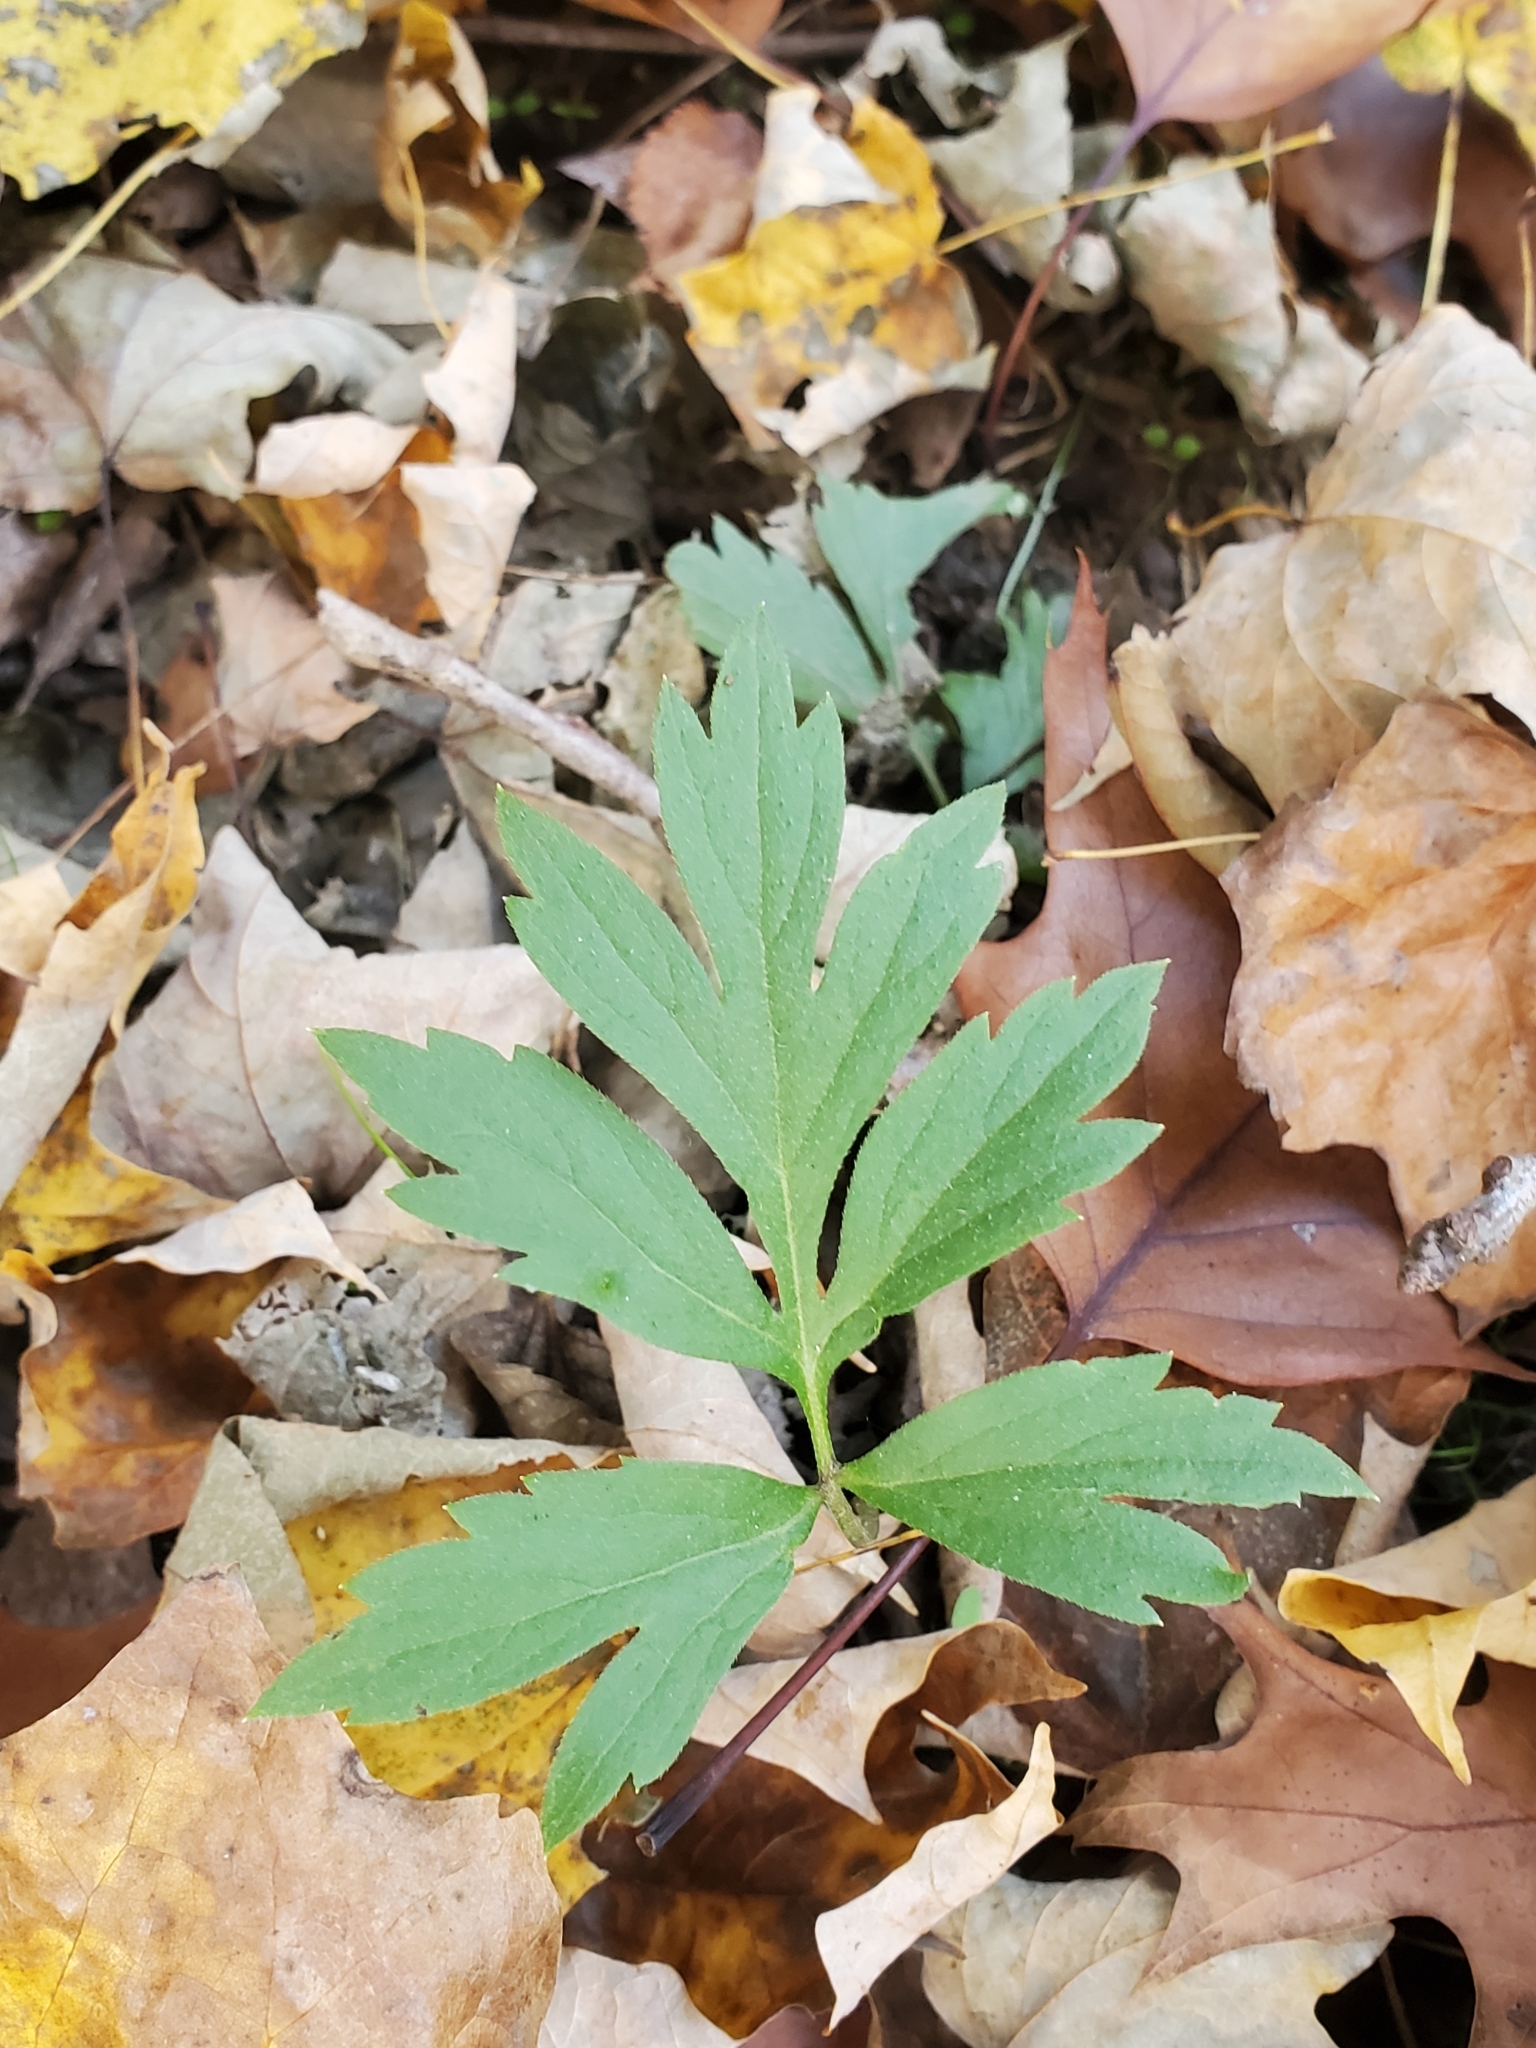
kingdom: Plantae
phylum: Tracheophyta
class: Magnoliopsida
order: Boraginales
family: Hydrophyllaceae
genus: Hydrophyllum
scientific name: Hydrophyllum virginianum
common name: Virginia waterleaf
